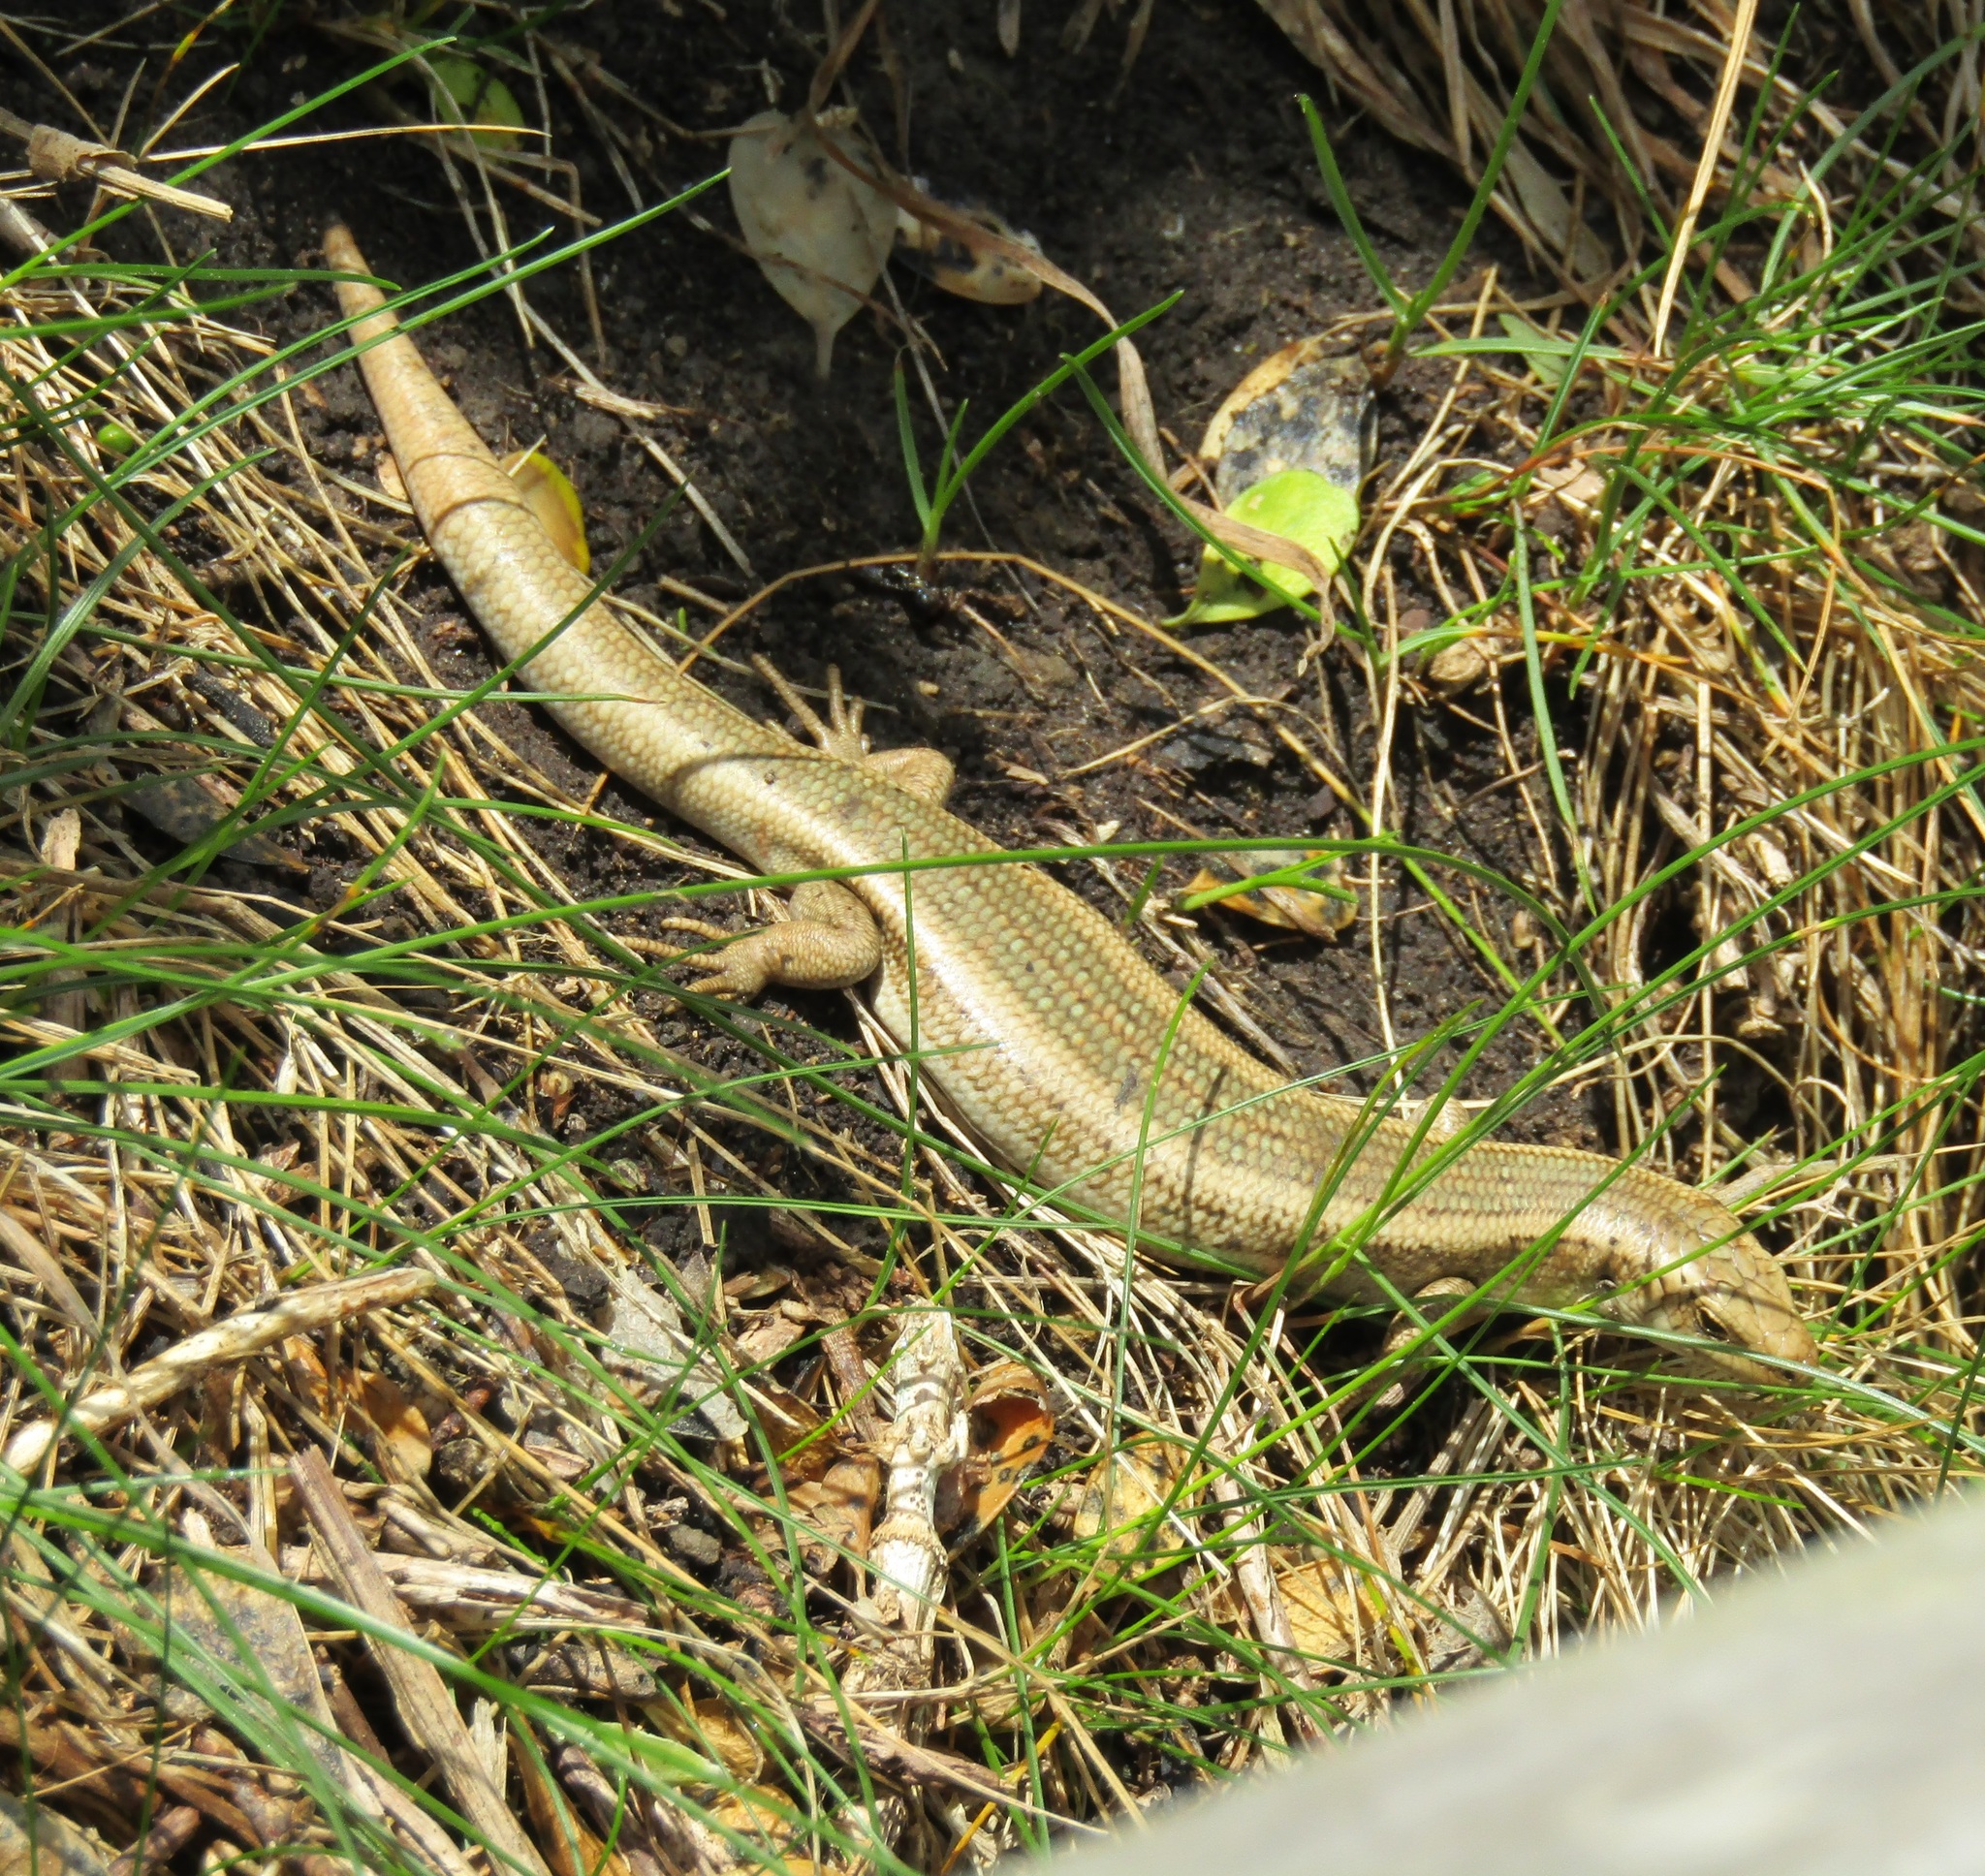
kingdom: Animalia
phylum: Chordata
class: Squamata
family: Scincidae
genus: Oligosoma
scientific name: Oligosoma kokowai
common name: Northern spotted skink
